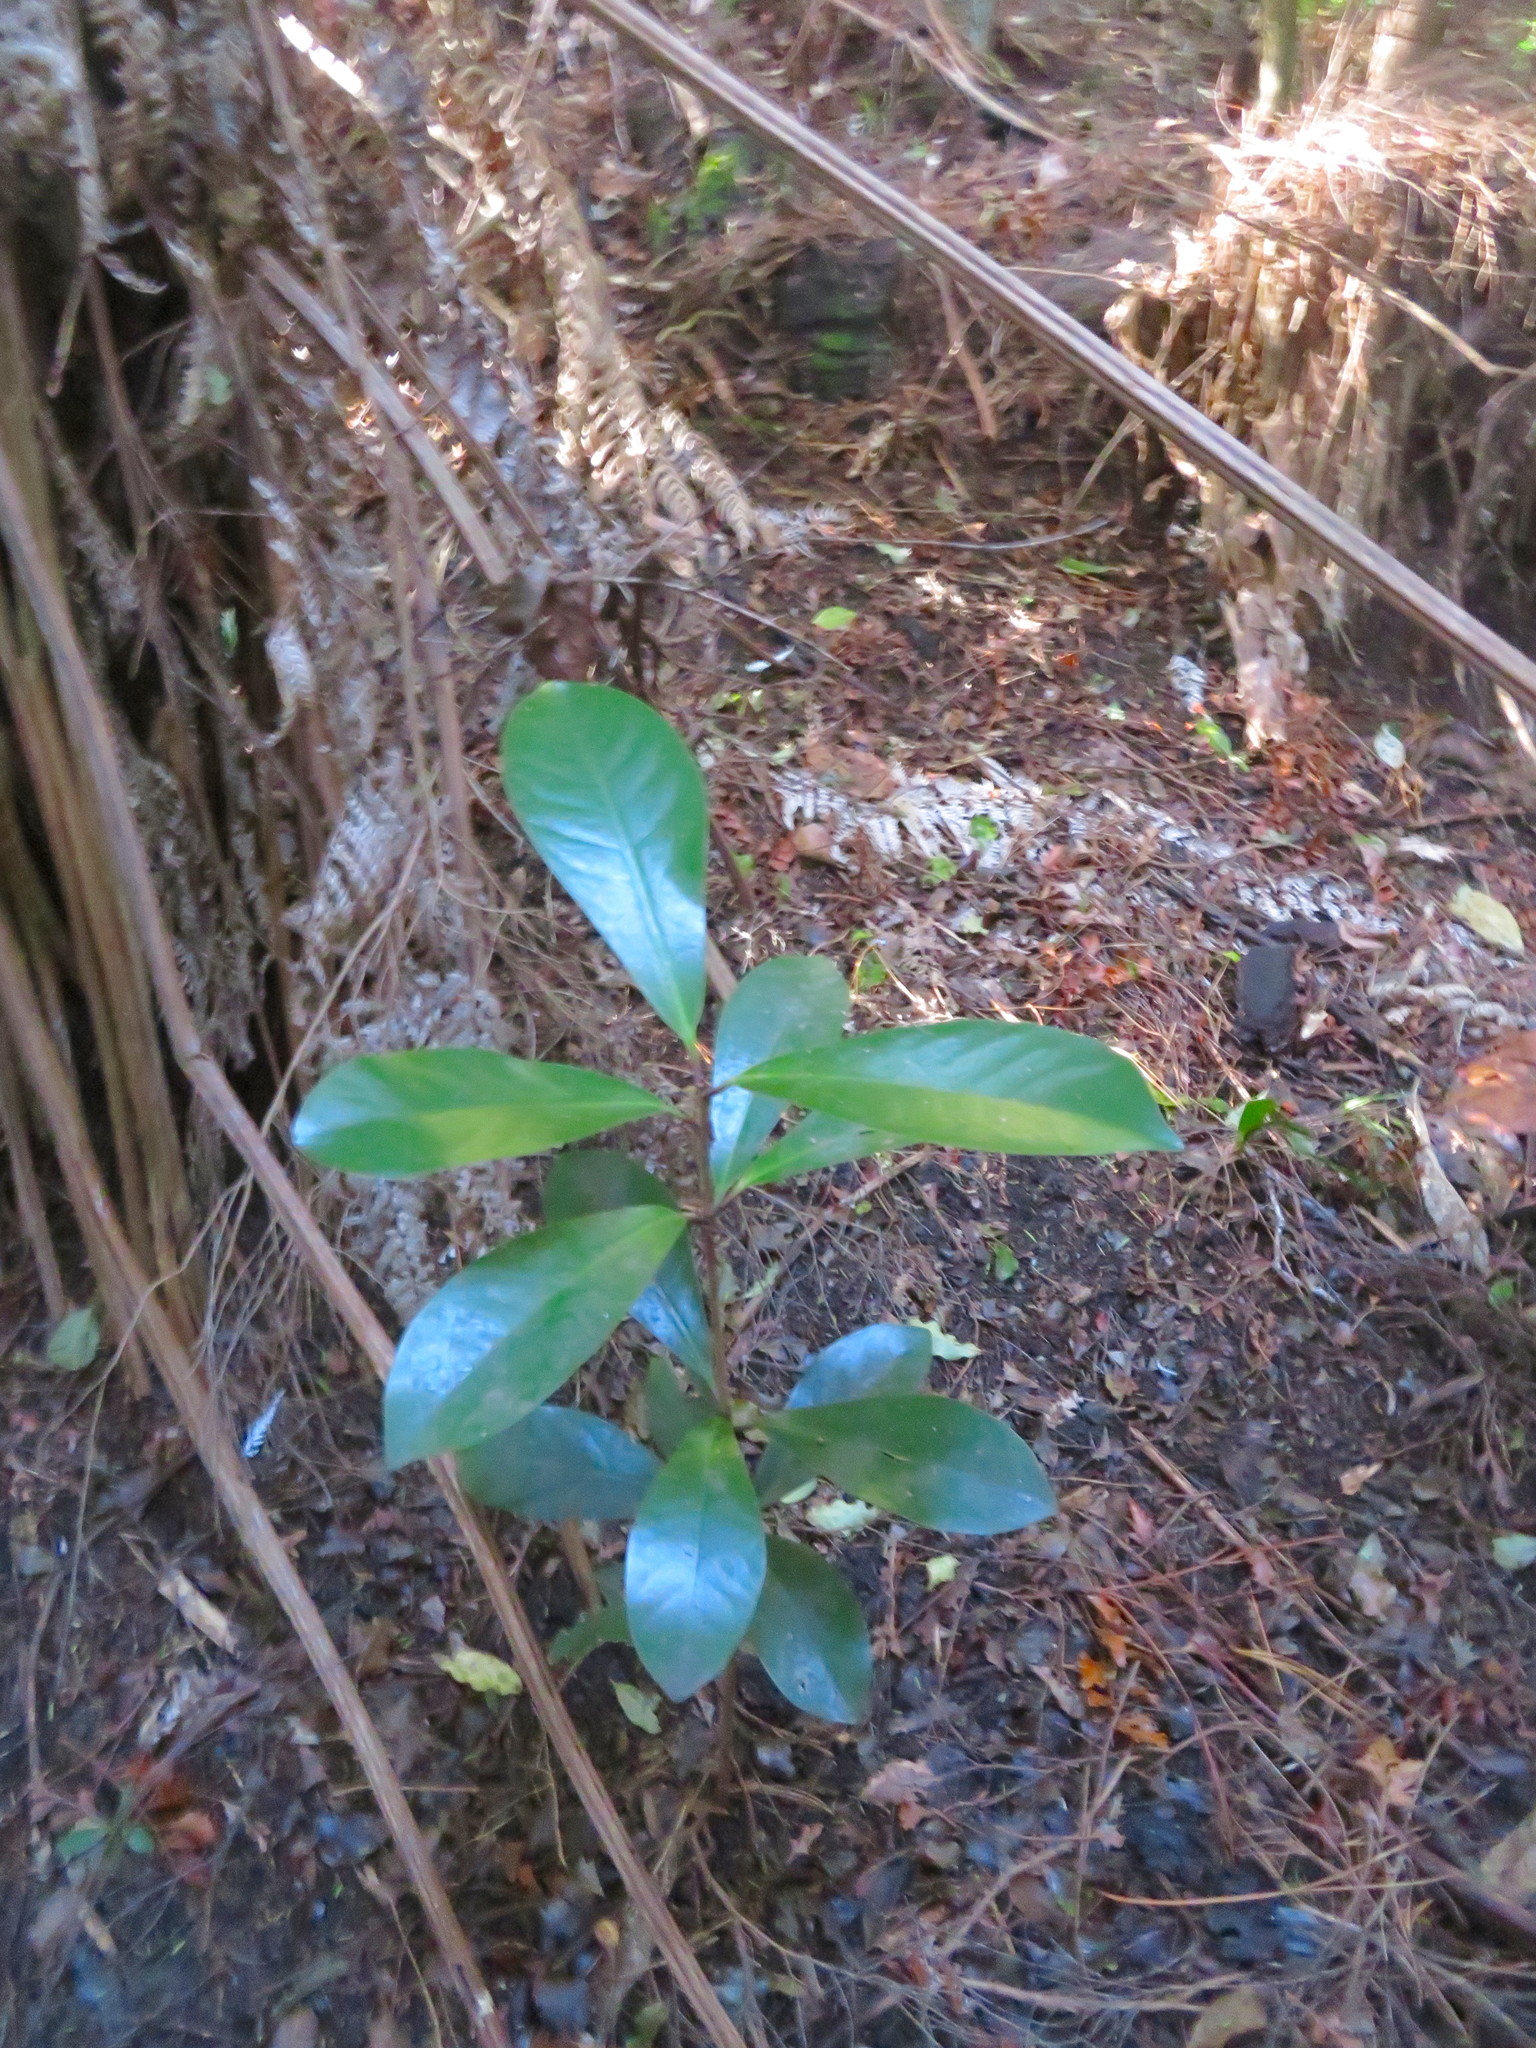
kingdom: Plantae
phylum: Tracheophyta
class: Magnoliopsida
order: Cucurbitales
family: Corynocarpaceae
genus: Corynocarpus
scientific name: Corynocarpus laevigatus
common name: New zealand laurel
